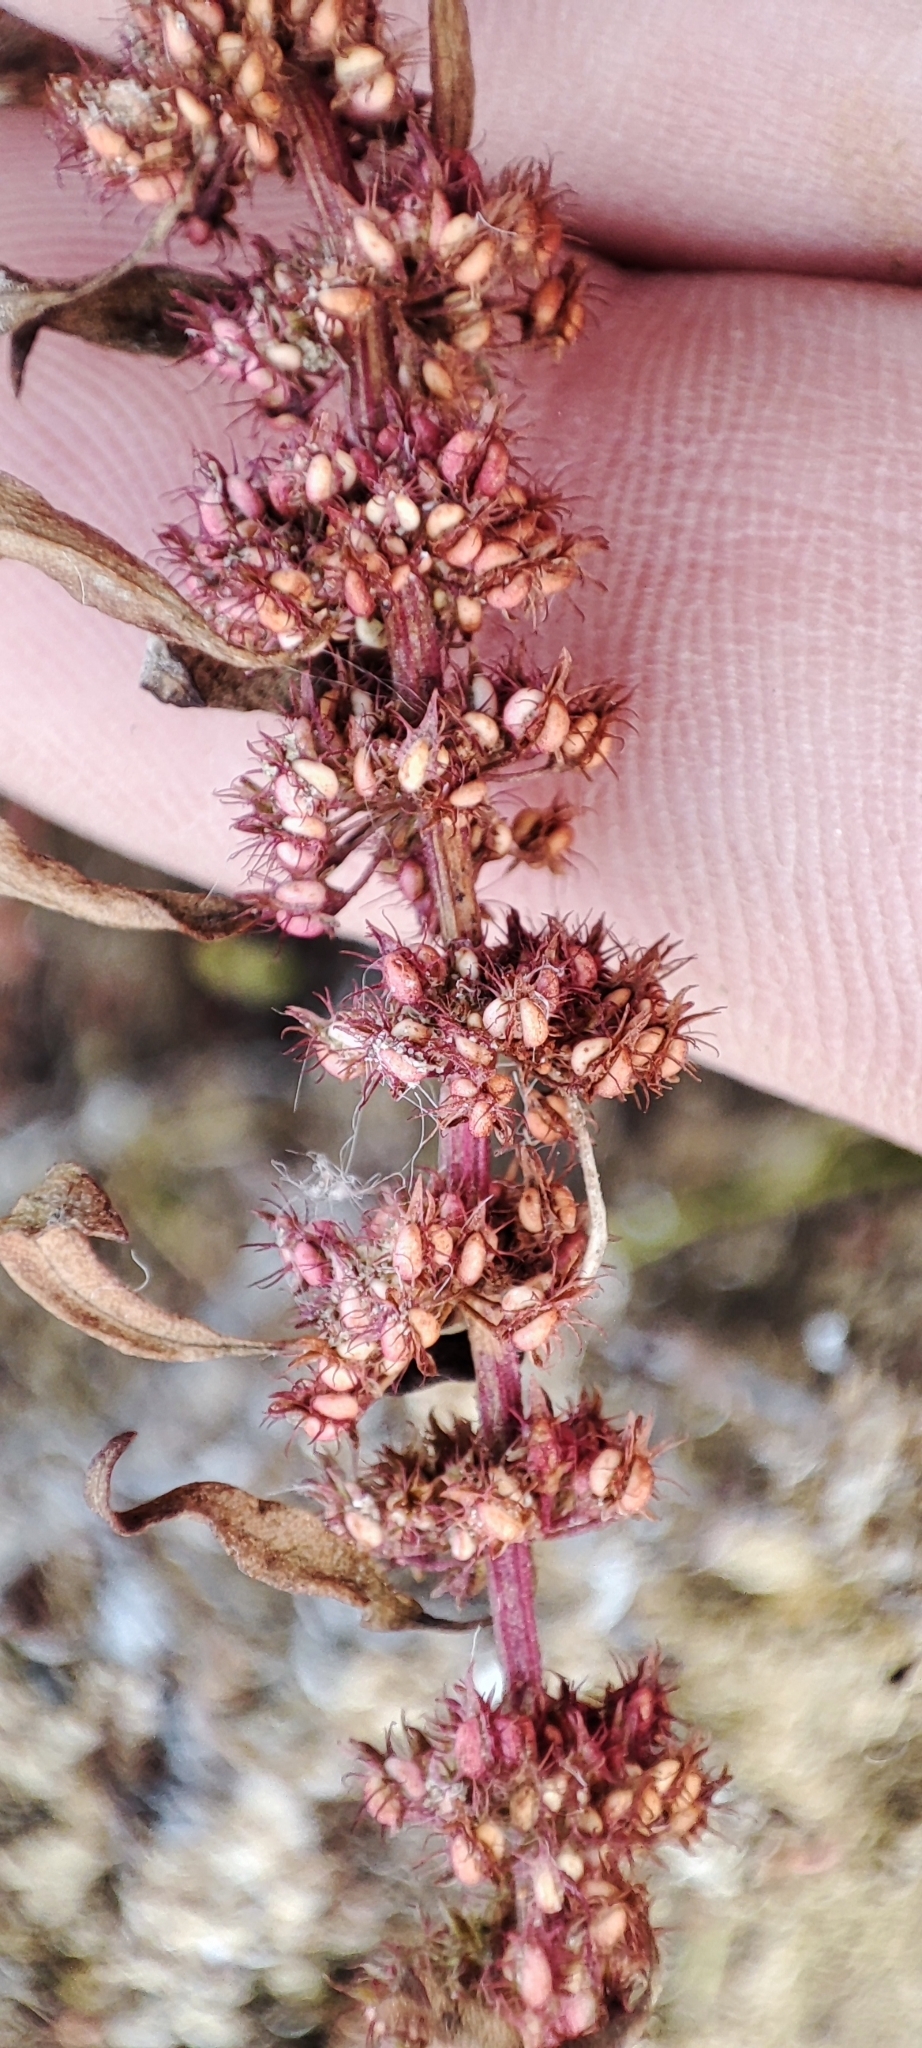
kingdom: Plantae
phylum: Tracheophyta
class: Magnoliopsida
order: Caryophyllales
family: Polygonaceae
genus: Rumex
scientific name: Rumex ucranicus
